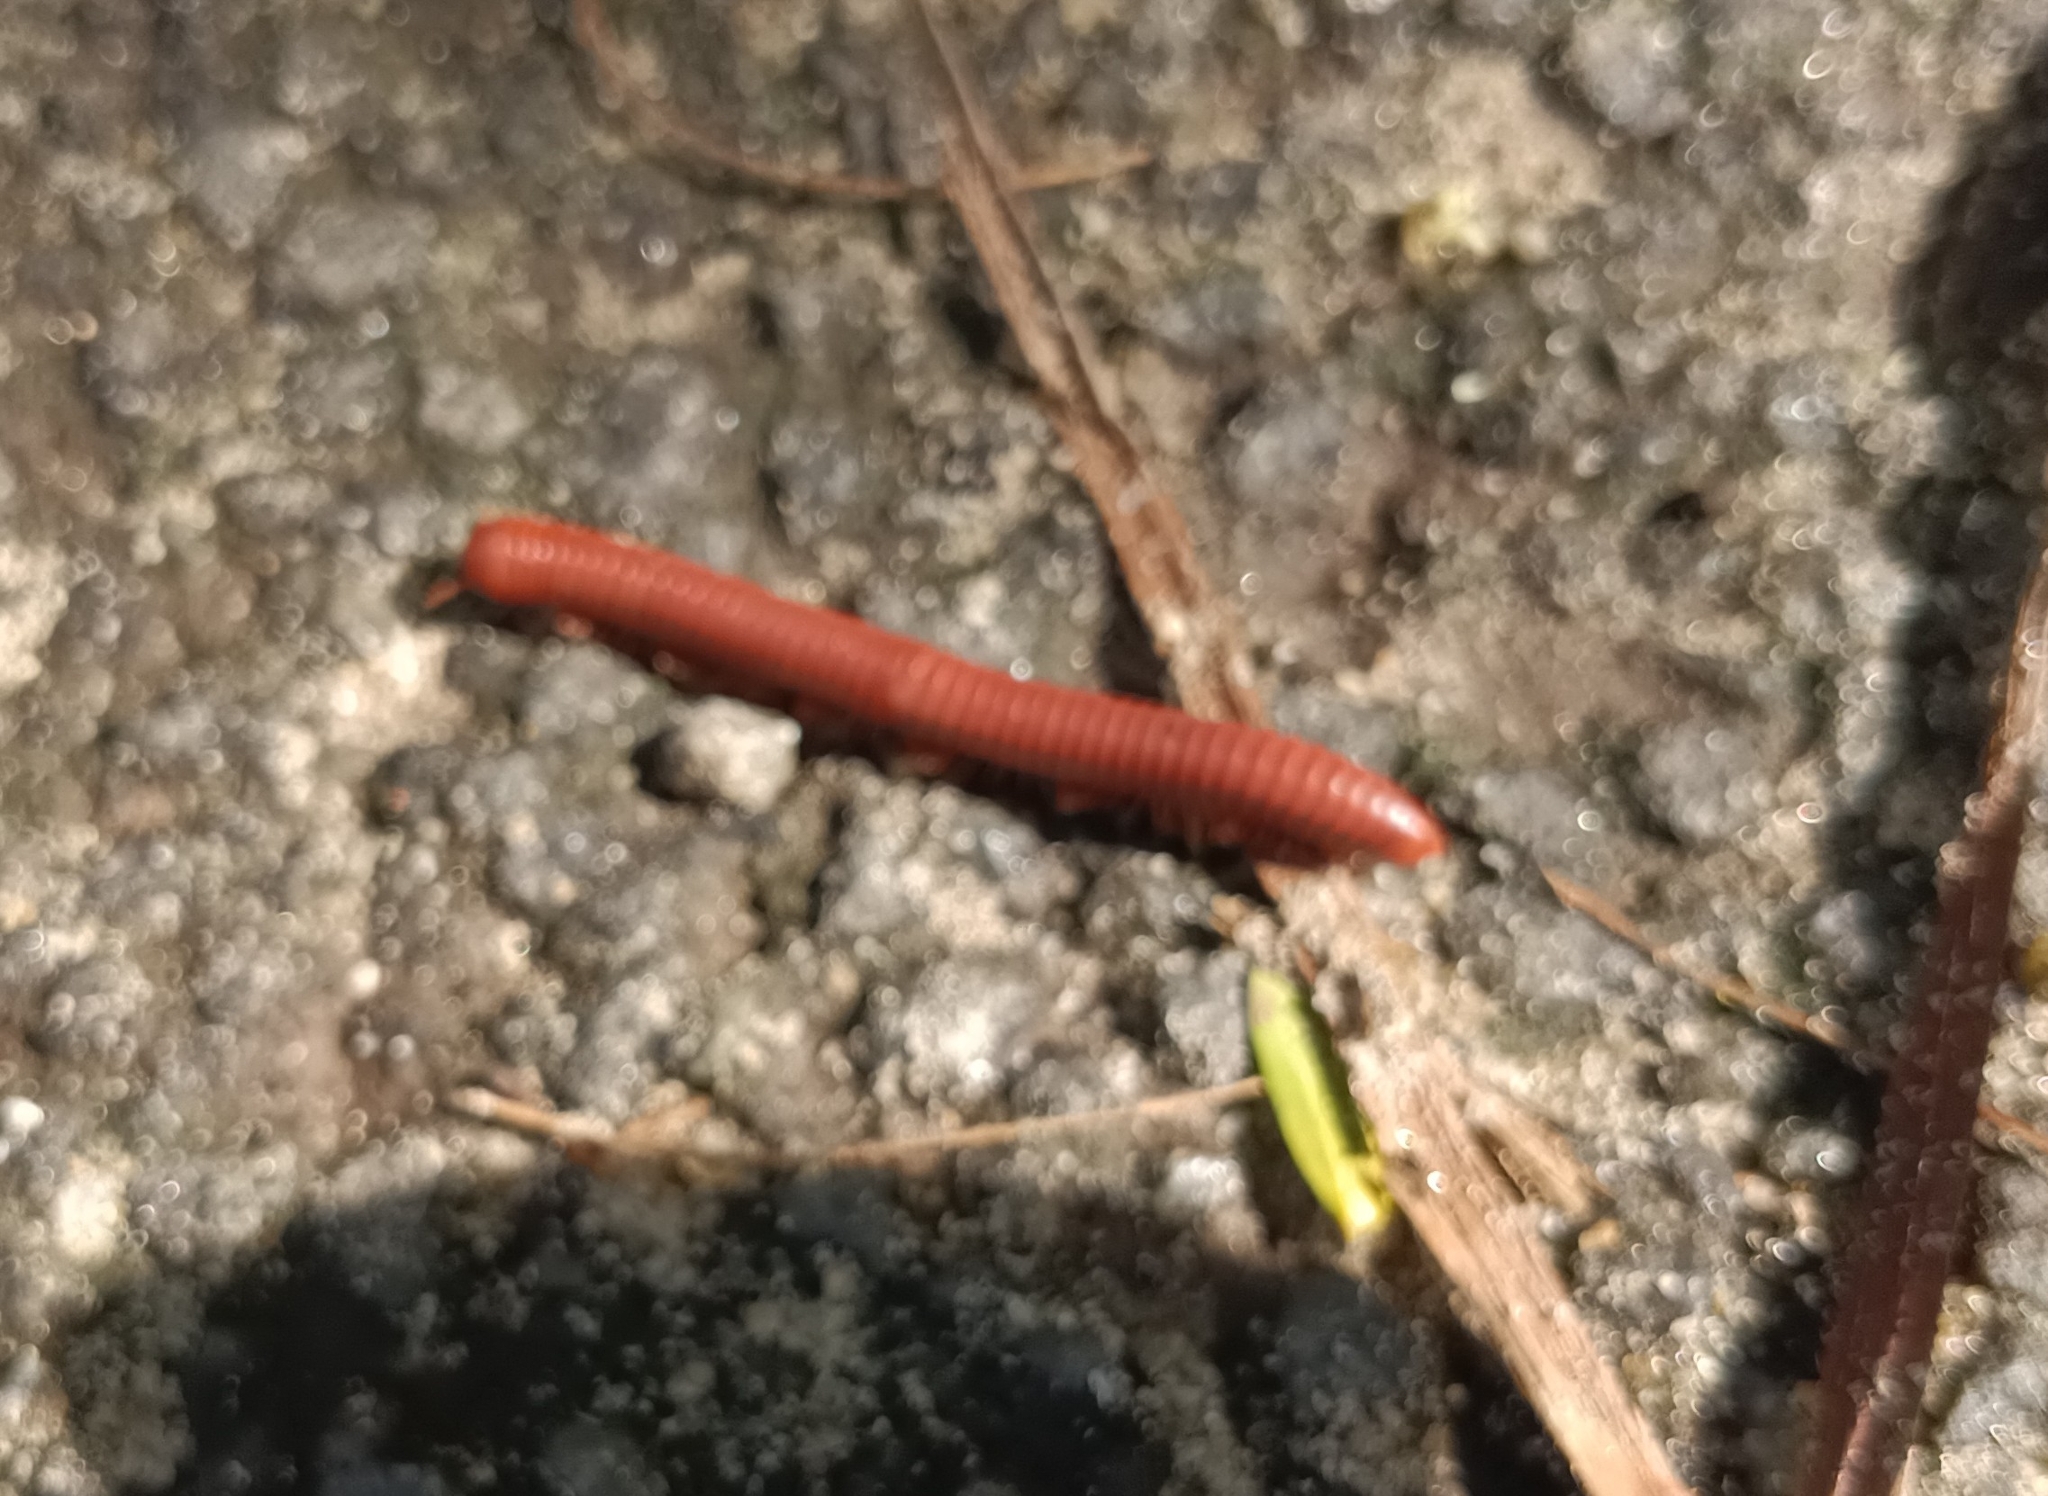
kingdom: Animalia
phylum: Arthropoda
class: Diplopoda
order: Spirobolida
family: Pachybolidae
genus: Trigoniulus
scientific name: Trigoniulus corallinus
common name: Millipede
